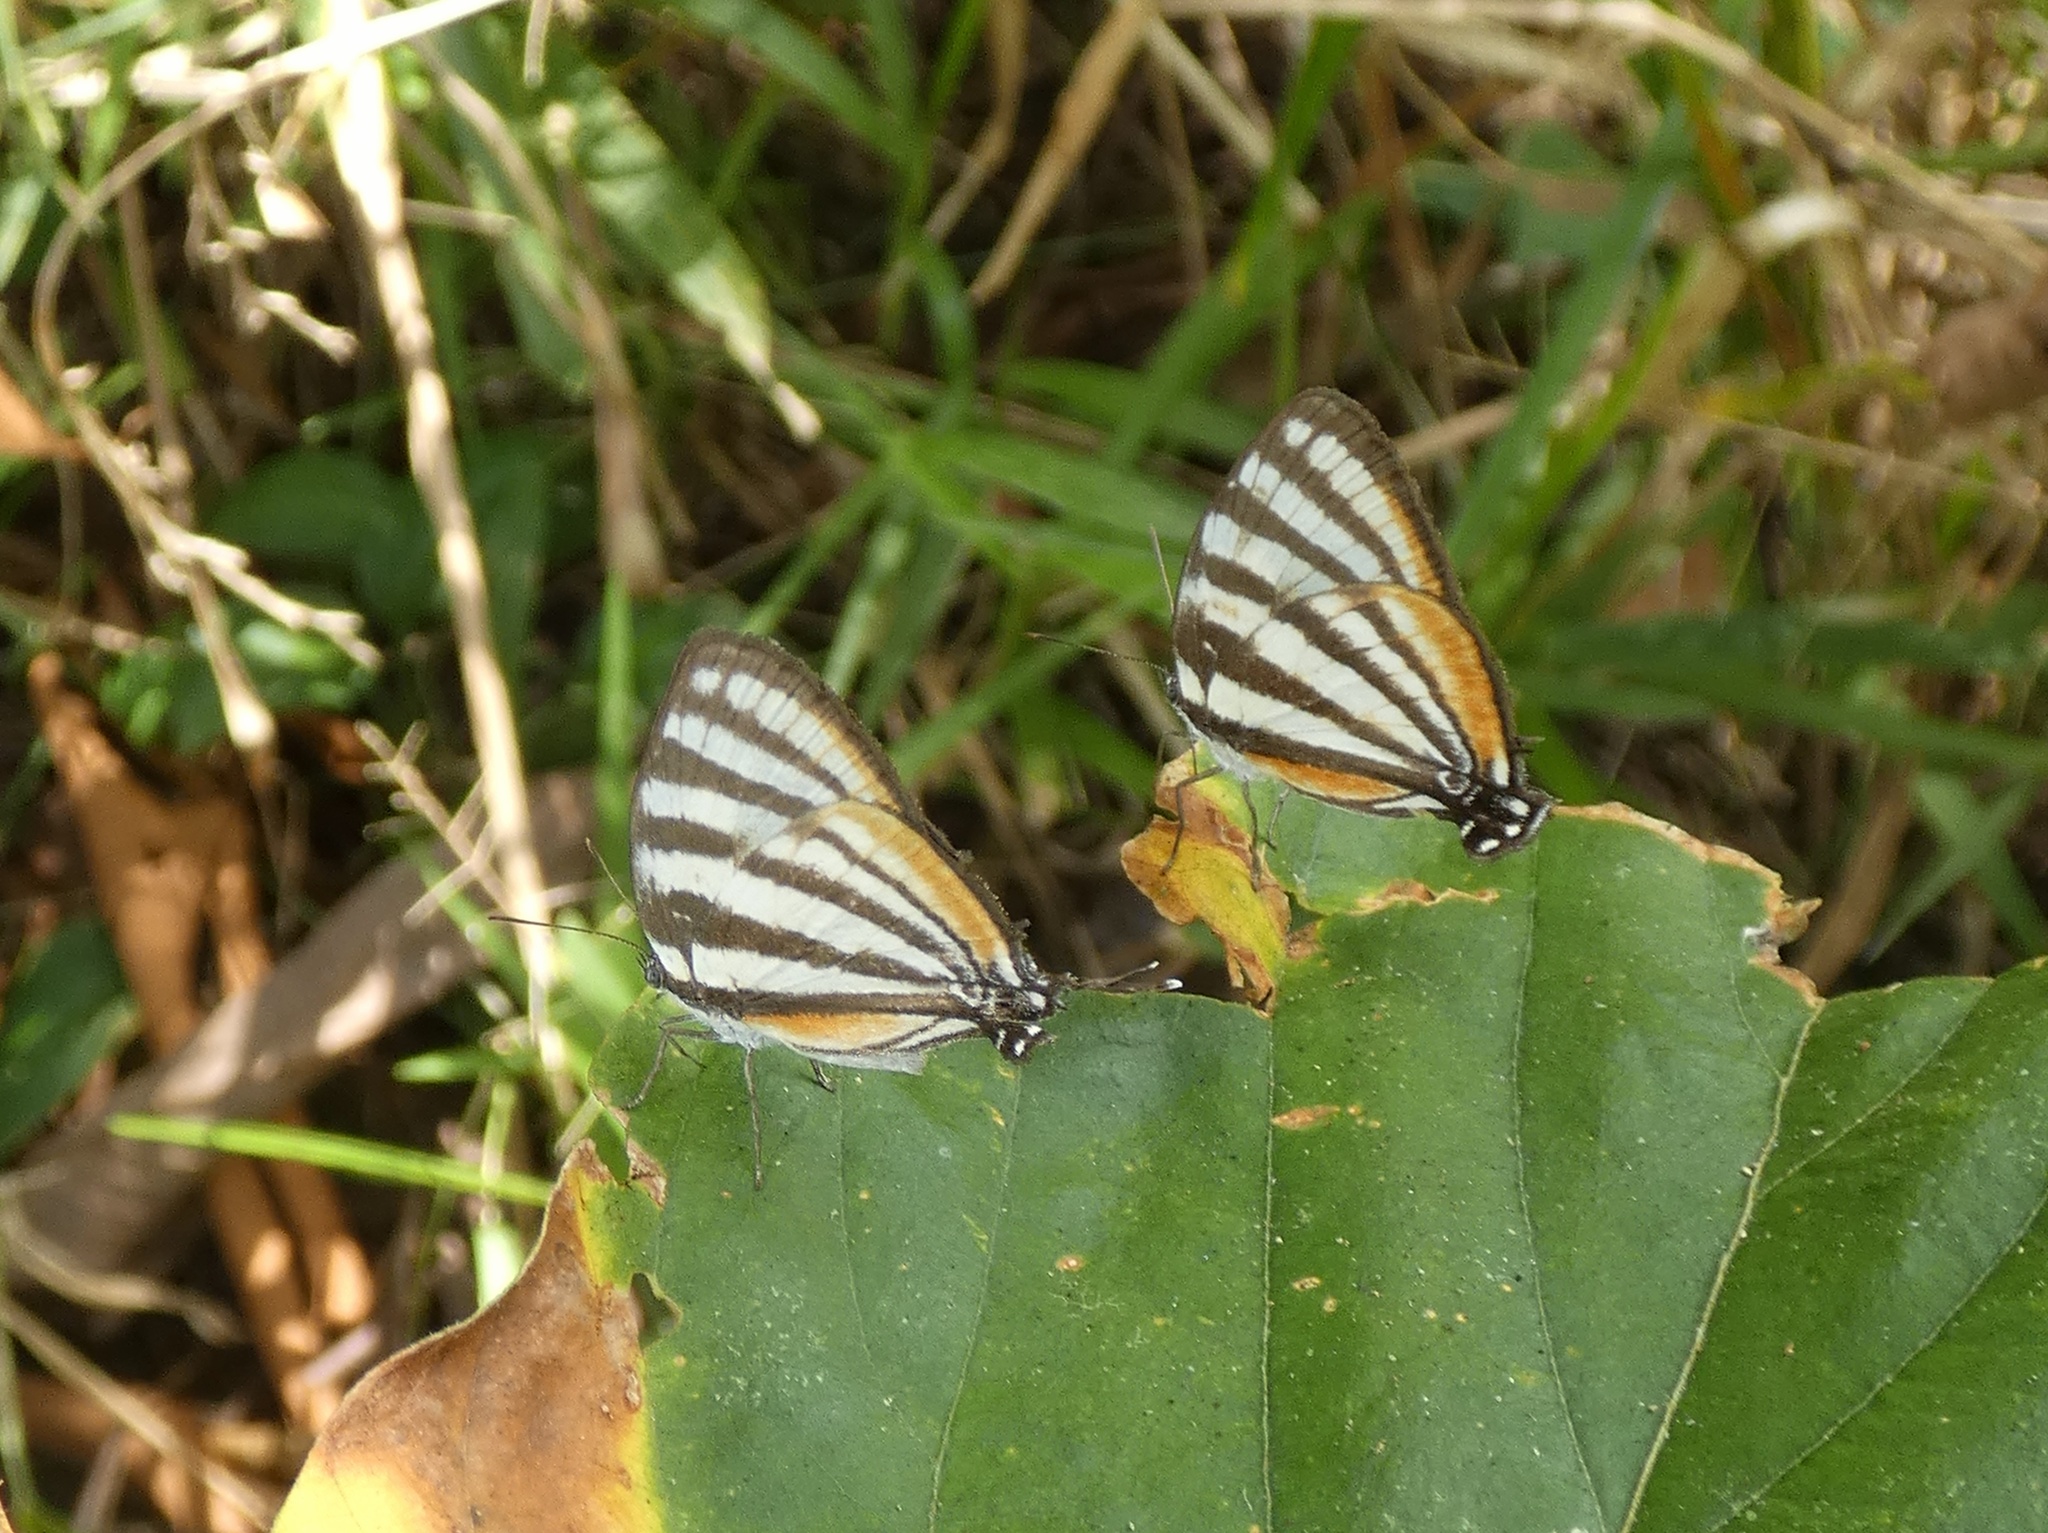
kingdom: Animalia
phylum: Arthropoda
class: Insecta
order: Lepidoptera
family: Lycaenidae
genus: Arawacus
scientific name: Arawacus lincoides
